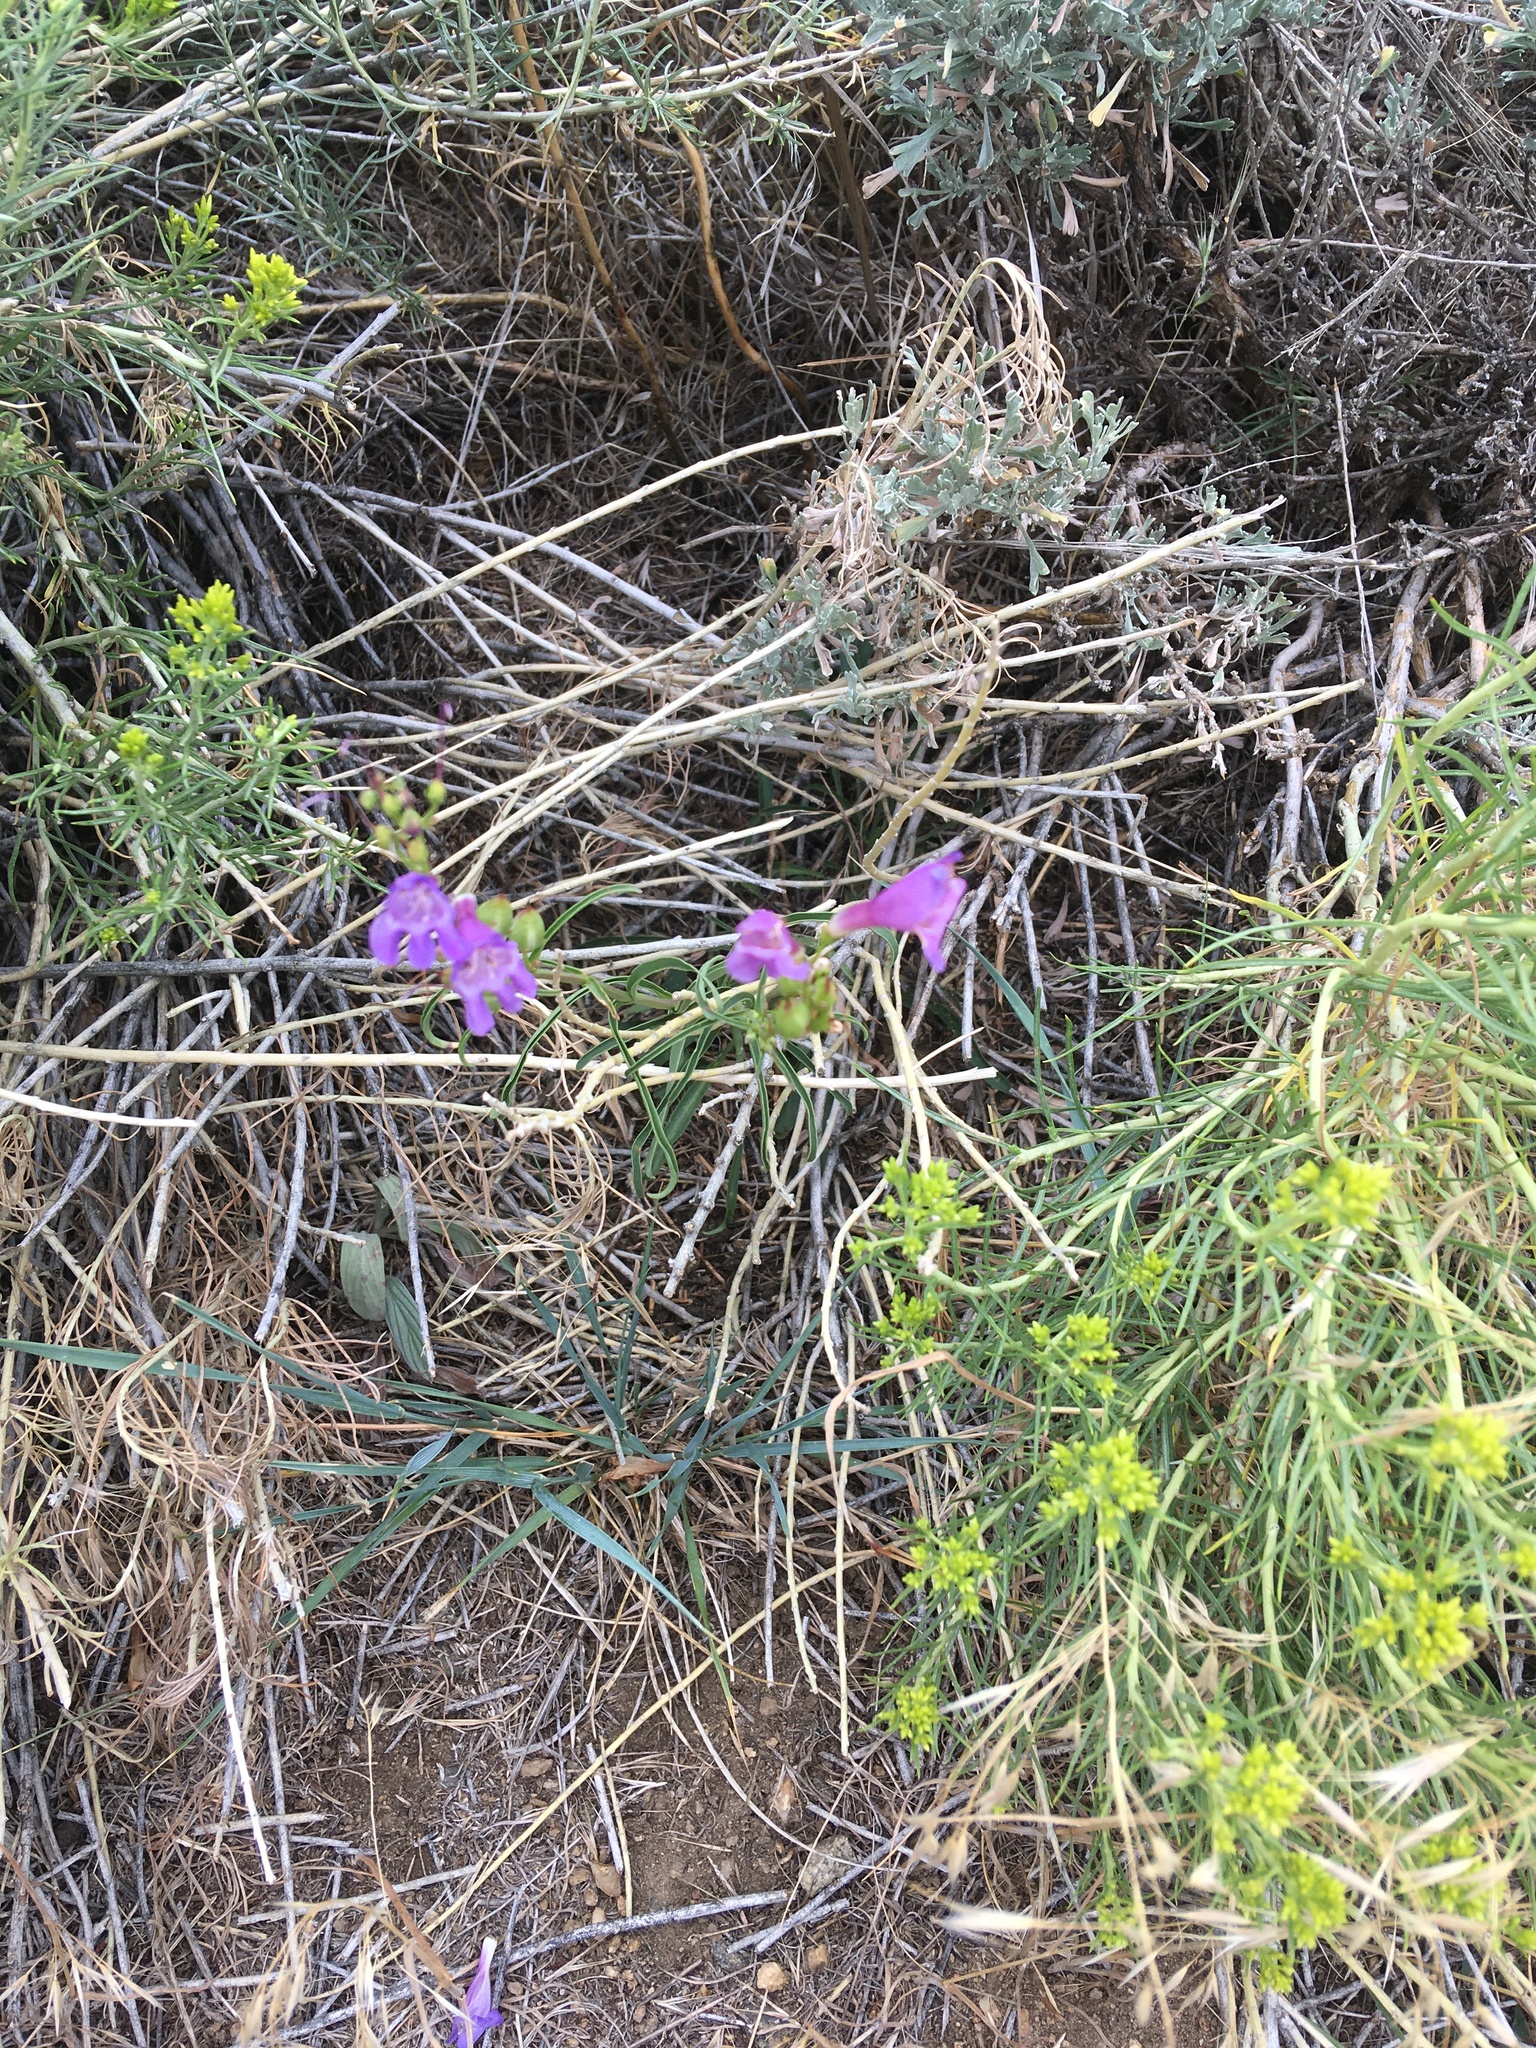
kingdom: Plantae
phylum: Tracheophyta
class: Magnoliopsida
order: Lamiales
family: Plantaginaceae
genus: Penstemon
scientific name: Penstemon strictus
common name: Rocky mountain penstemon
